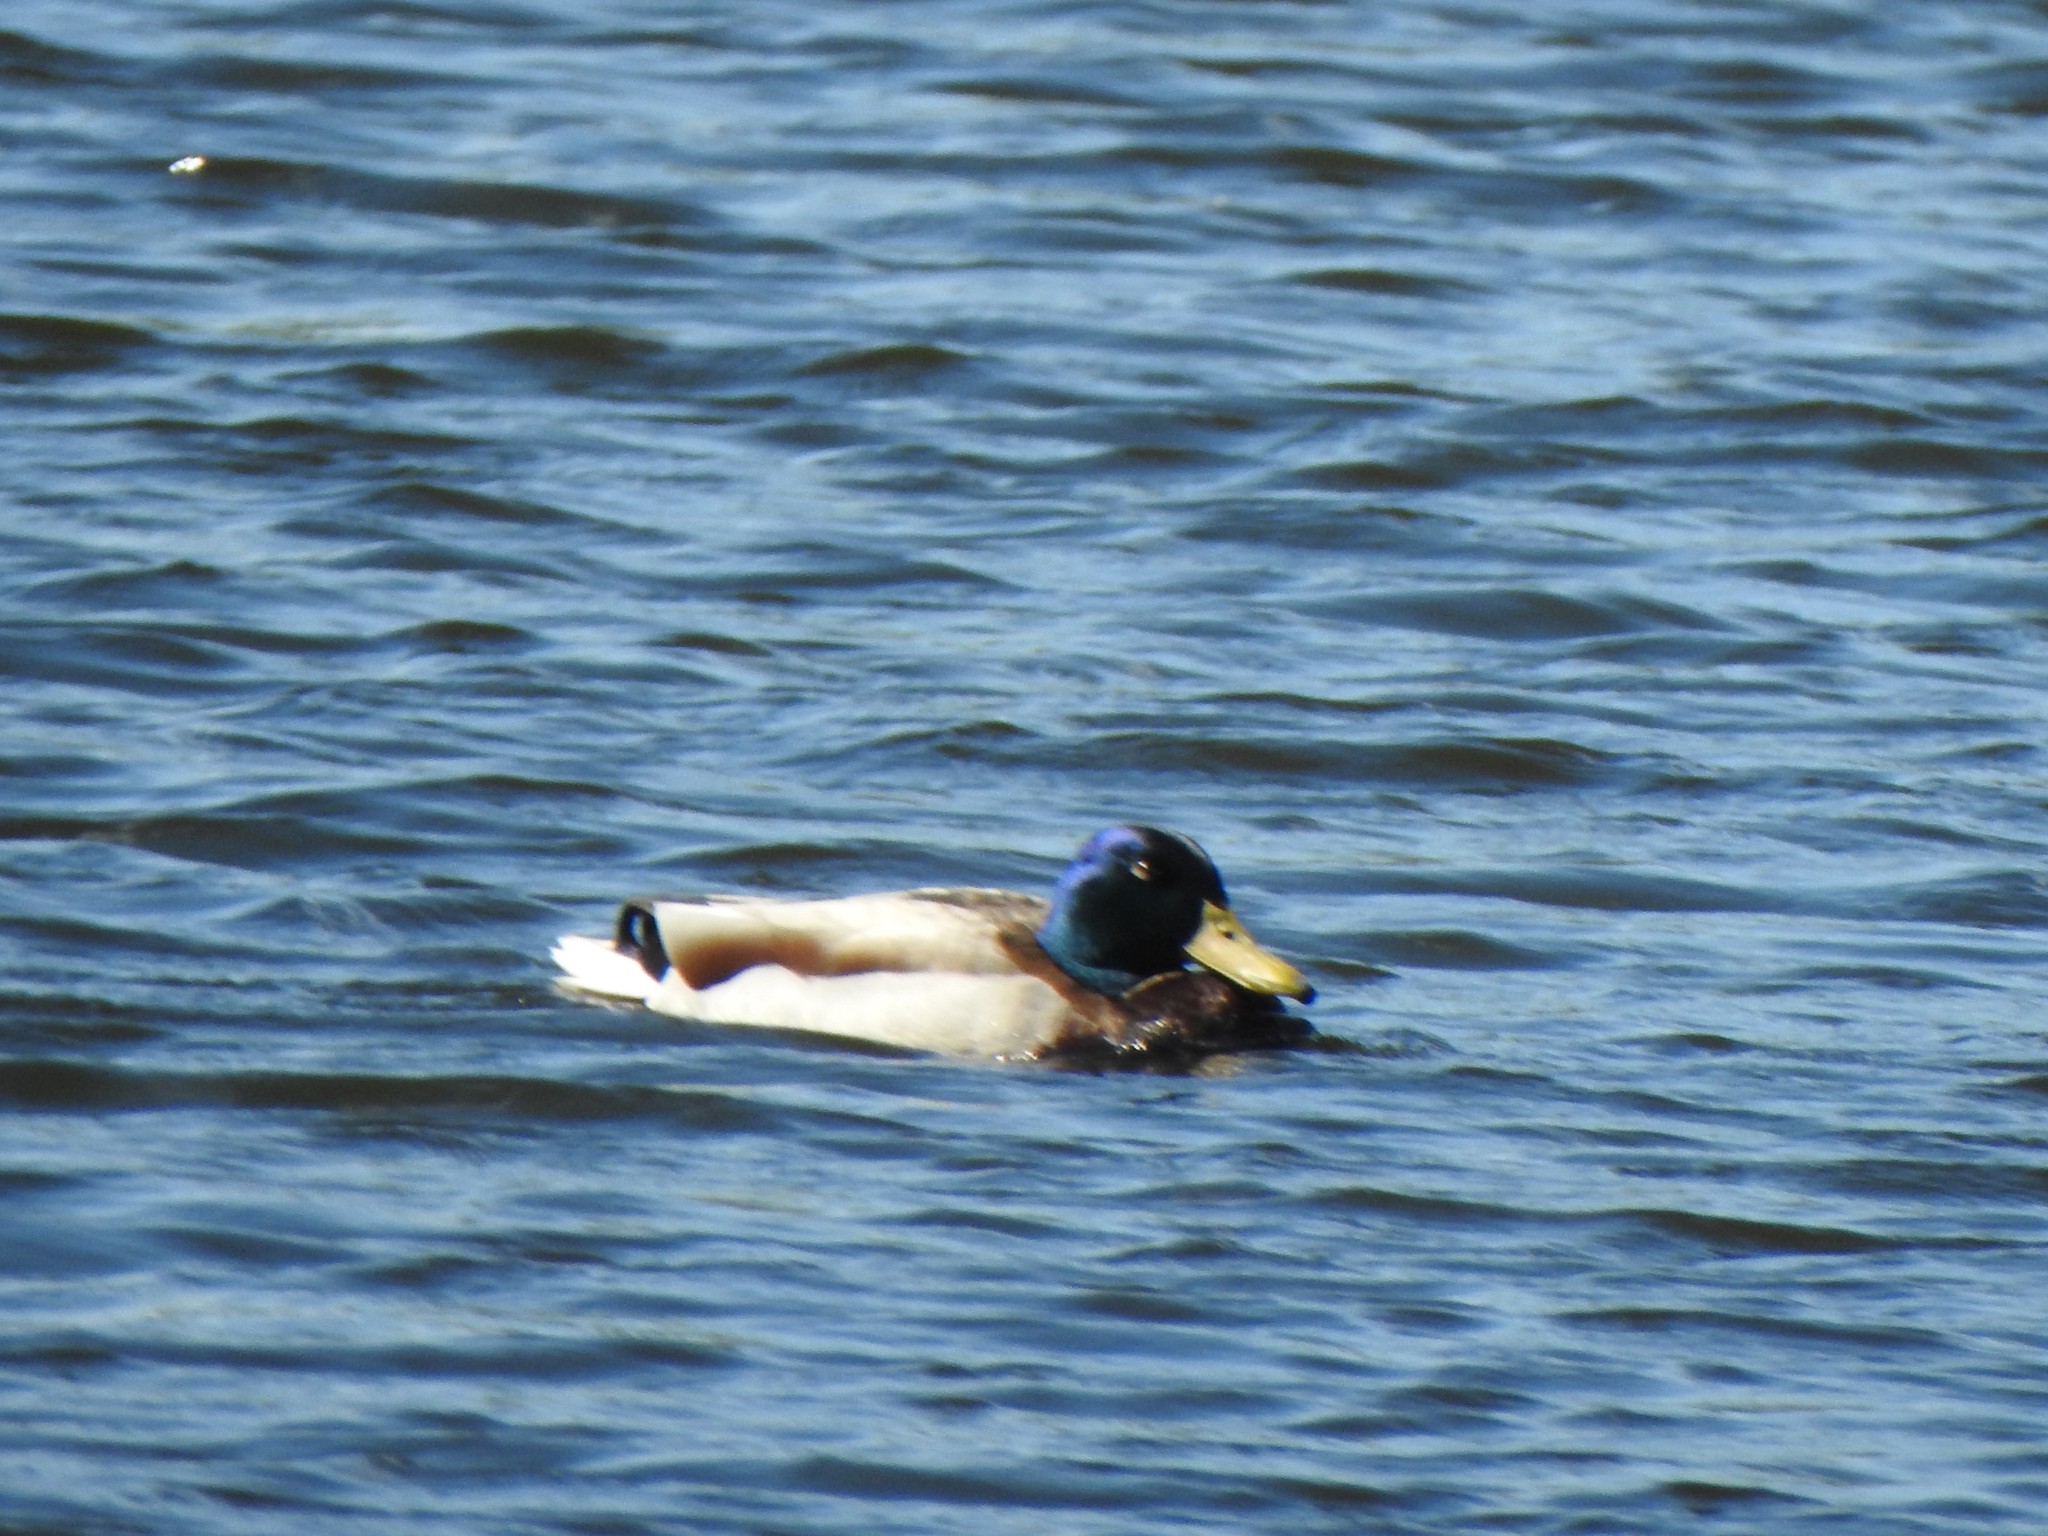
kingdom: Animalia
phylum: Chordata
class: Aves
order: Anseriformes
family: Anatidae
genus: Anas
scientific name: Anas platyrhynchos
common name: Mallard
